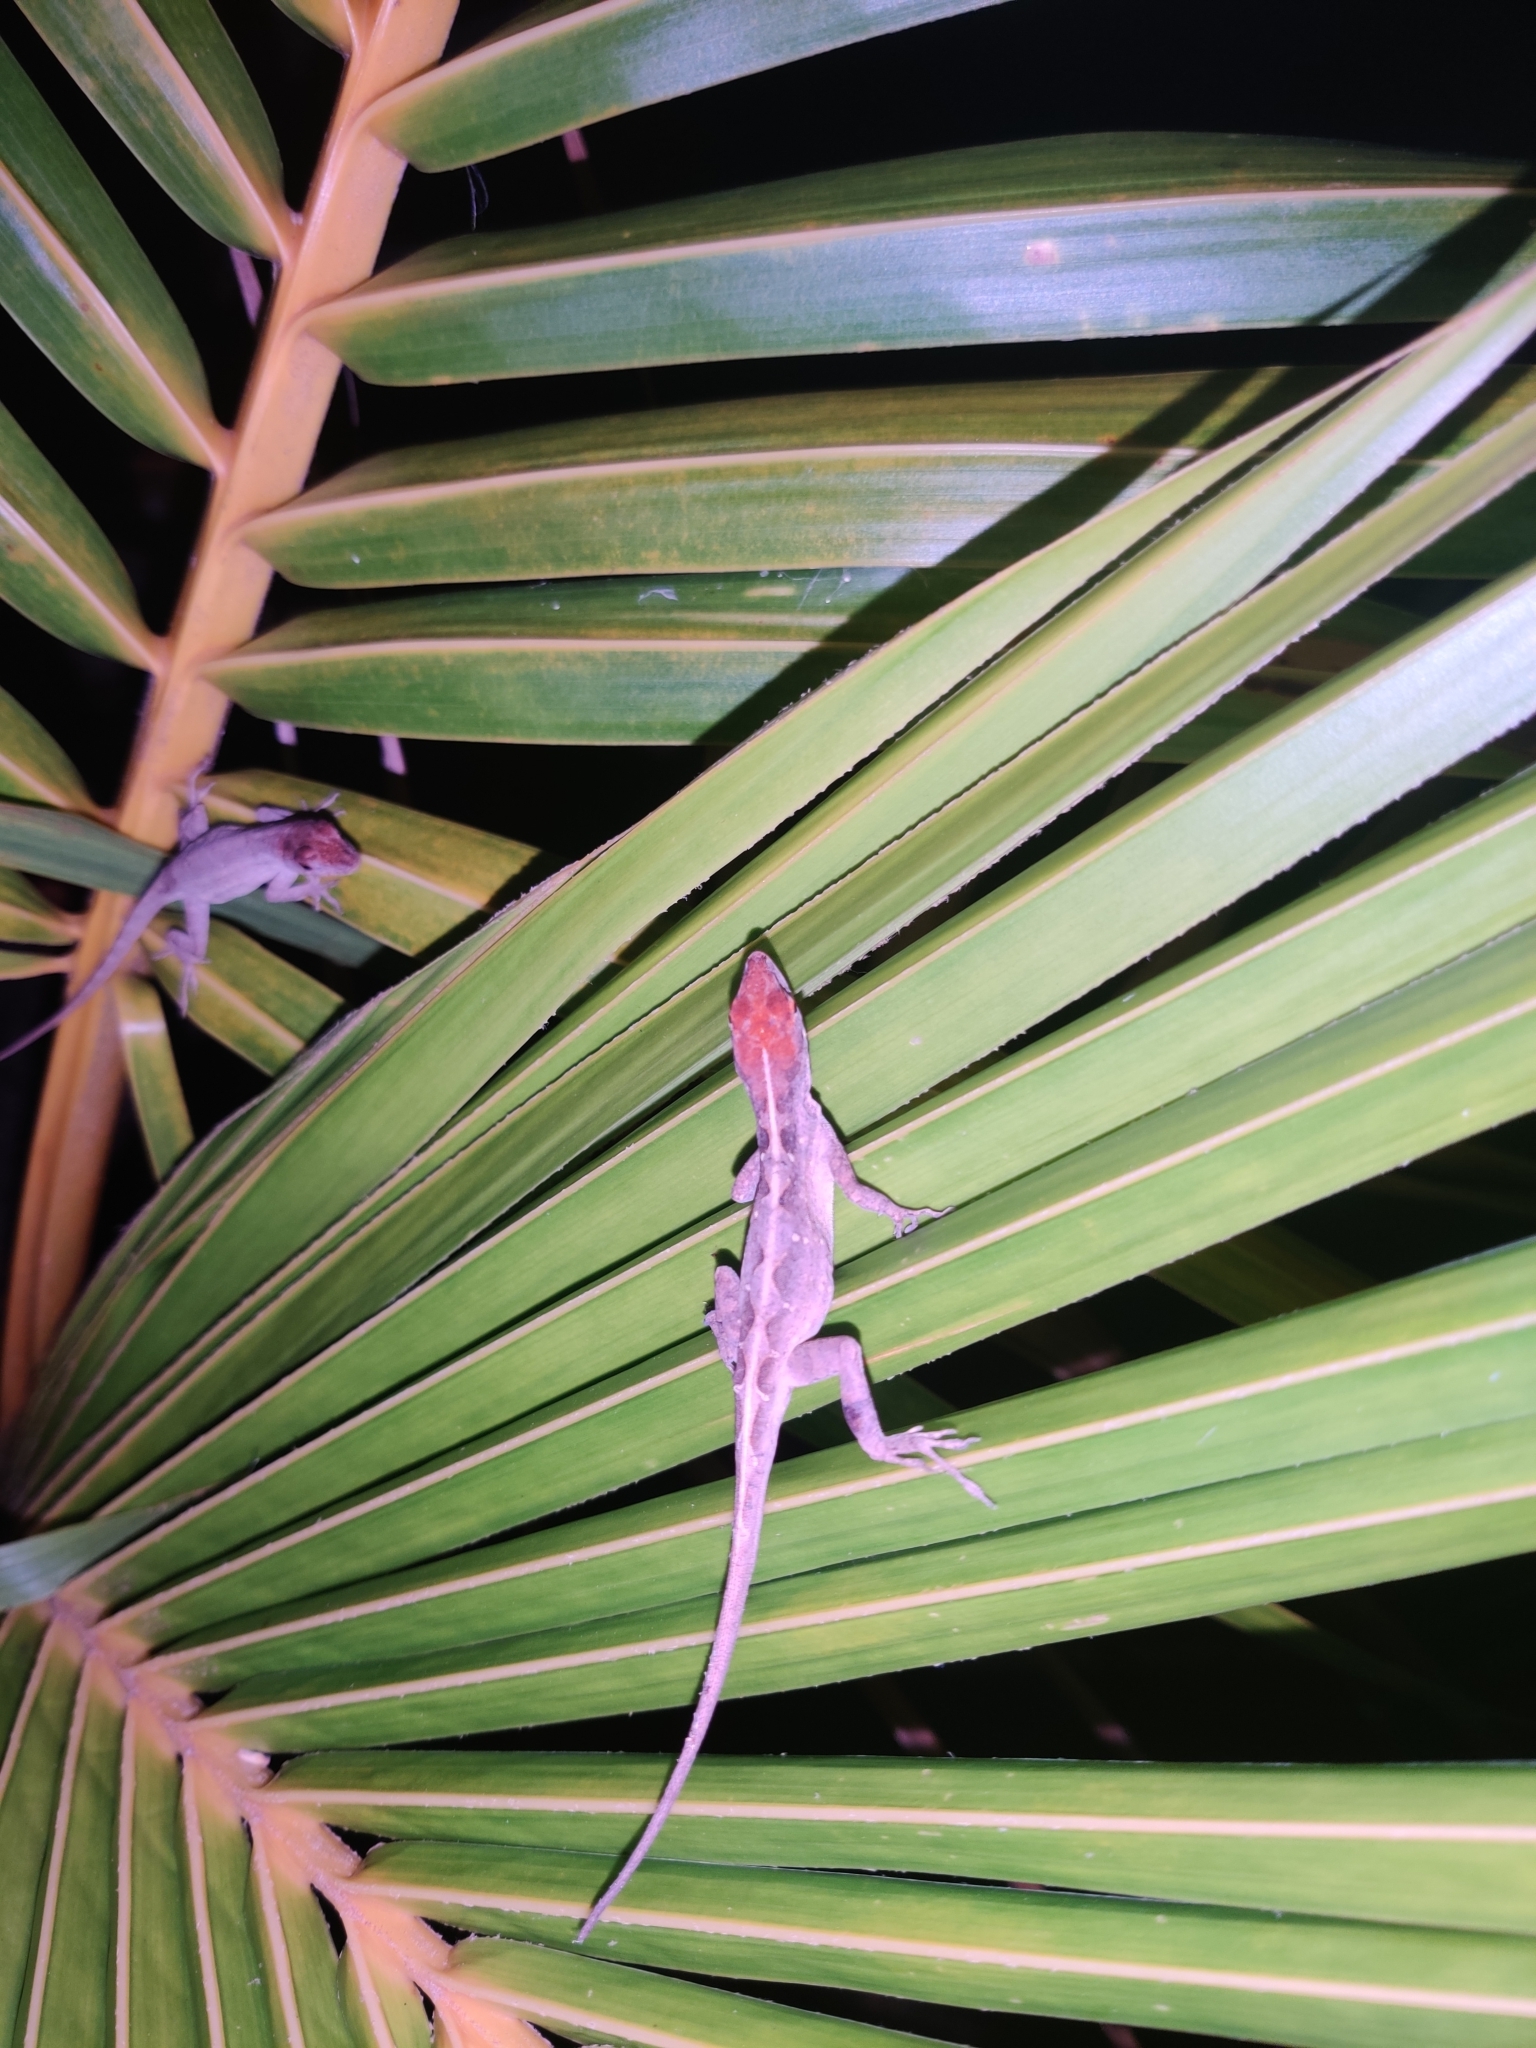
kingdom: Animalia
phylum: Chordata
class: Squamata
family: Dactyloidae
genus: Anolis
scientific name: Anolis sagrei
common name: Brown anole
